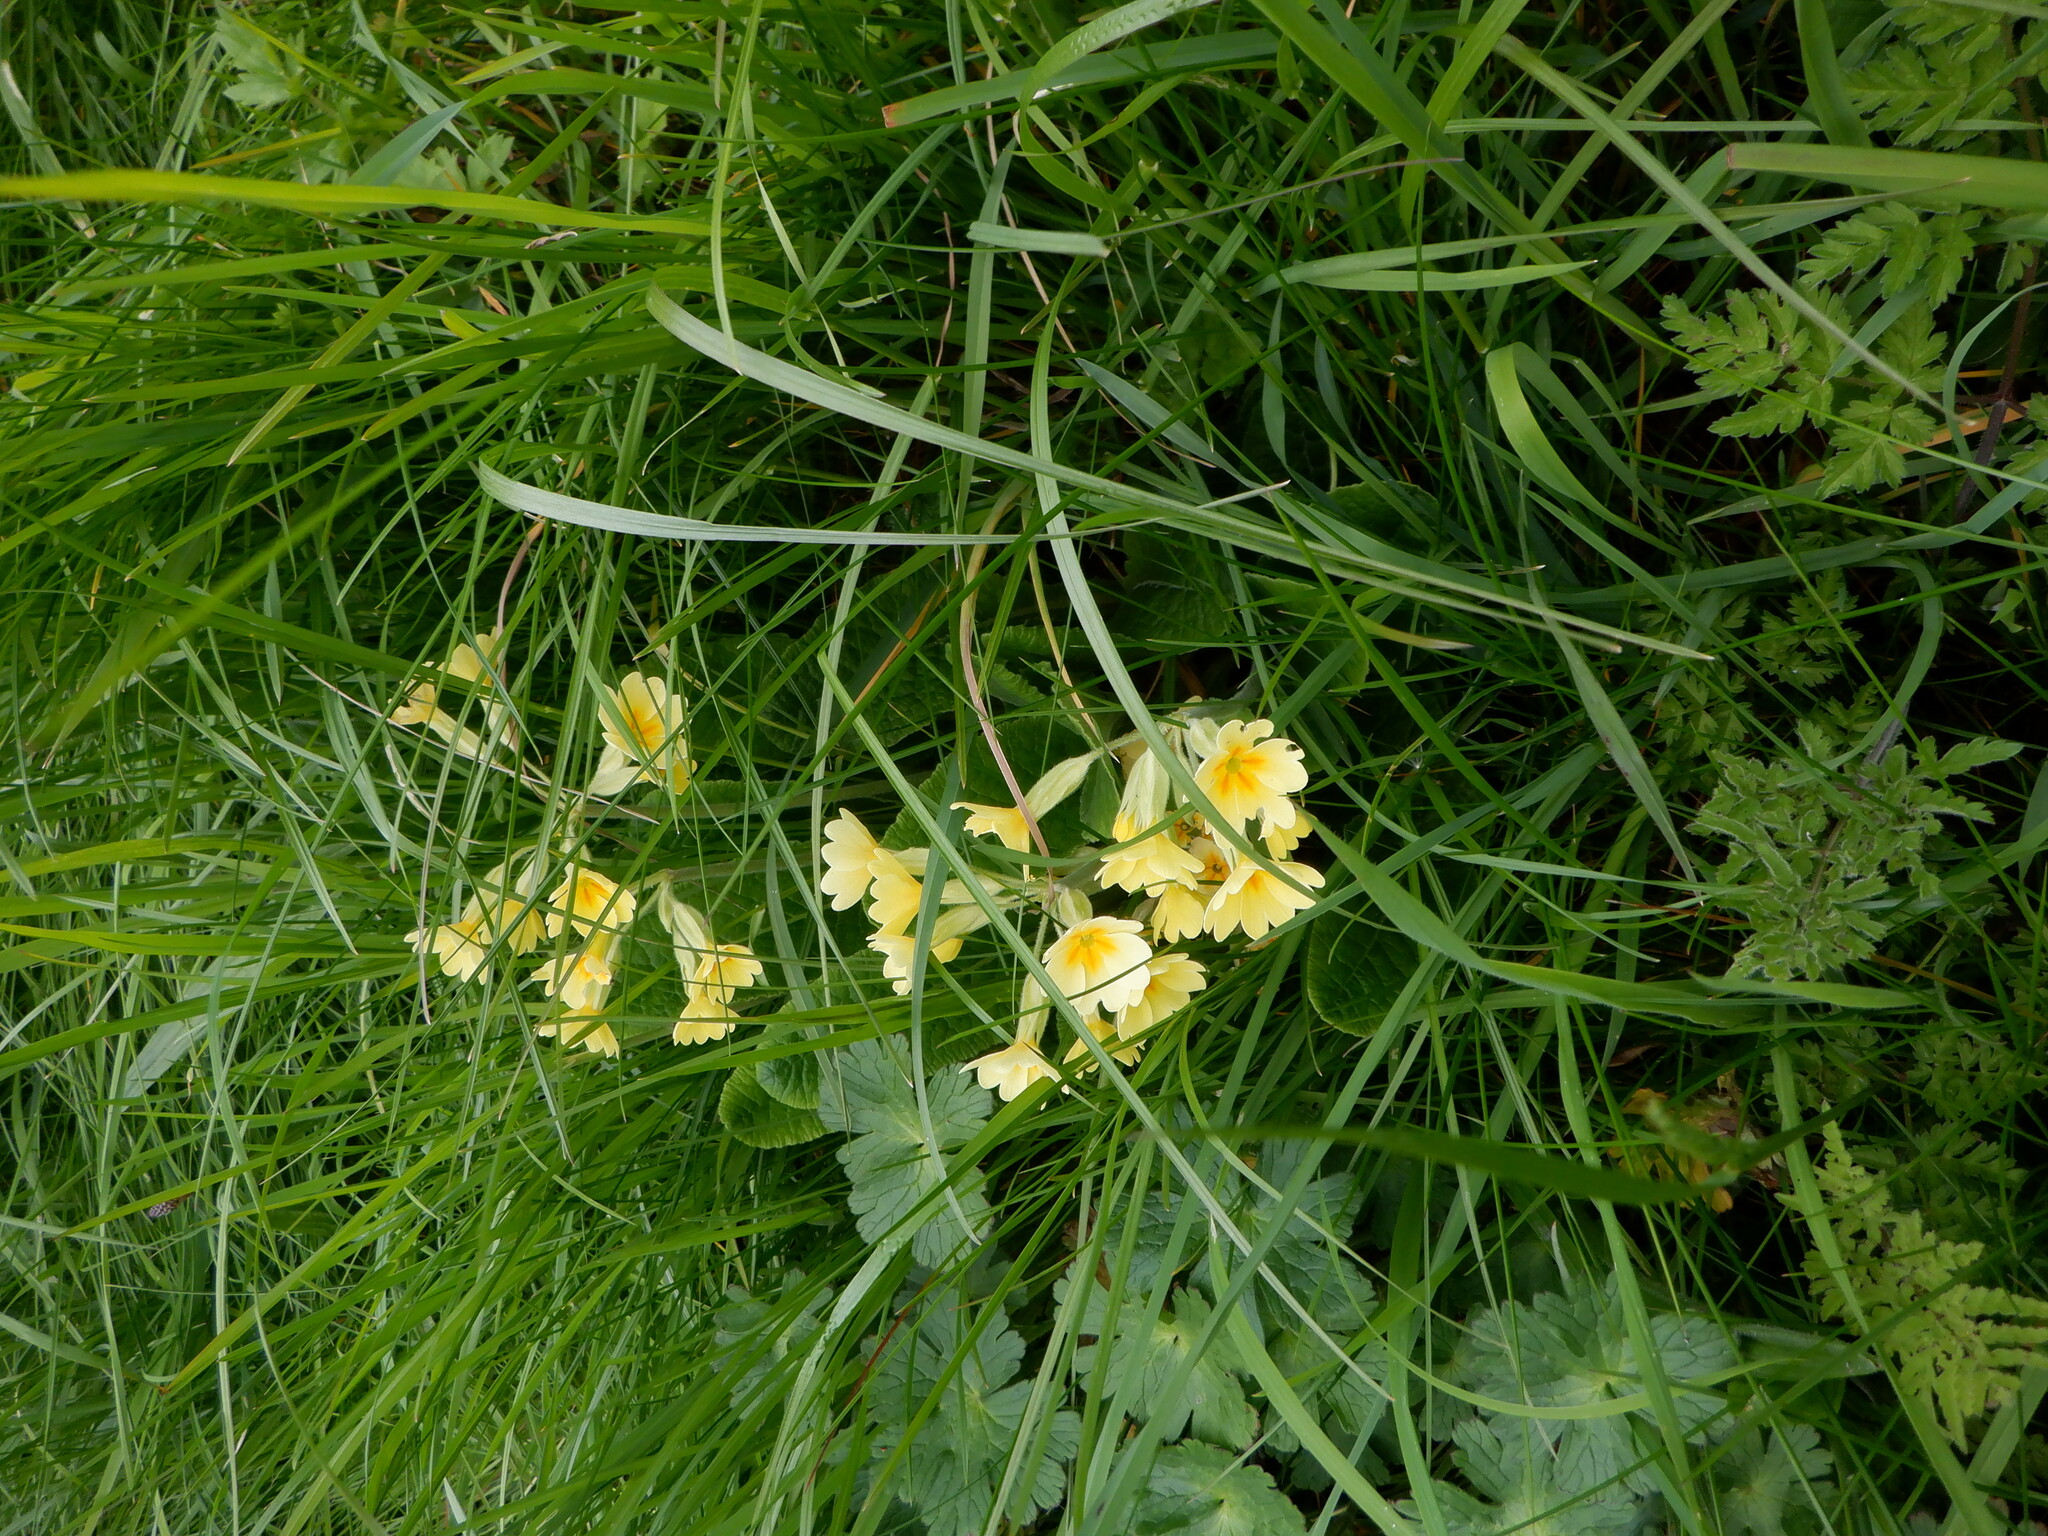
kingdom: Plantae
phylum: Tracheophyta
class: Magnoliopsida
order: Ericales
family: Primulaceae
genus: Primula
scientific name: Primula polyantha
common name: False oxlip
